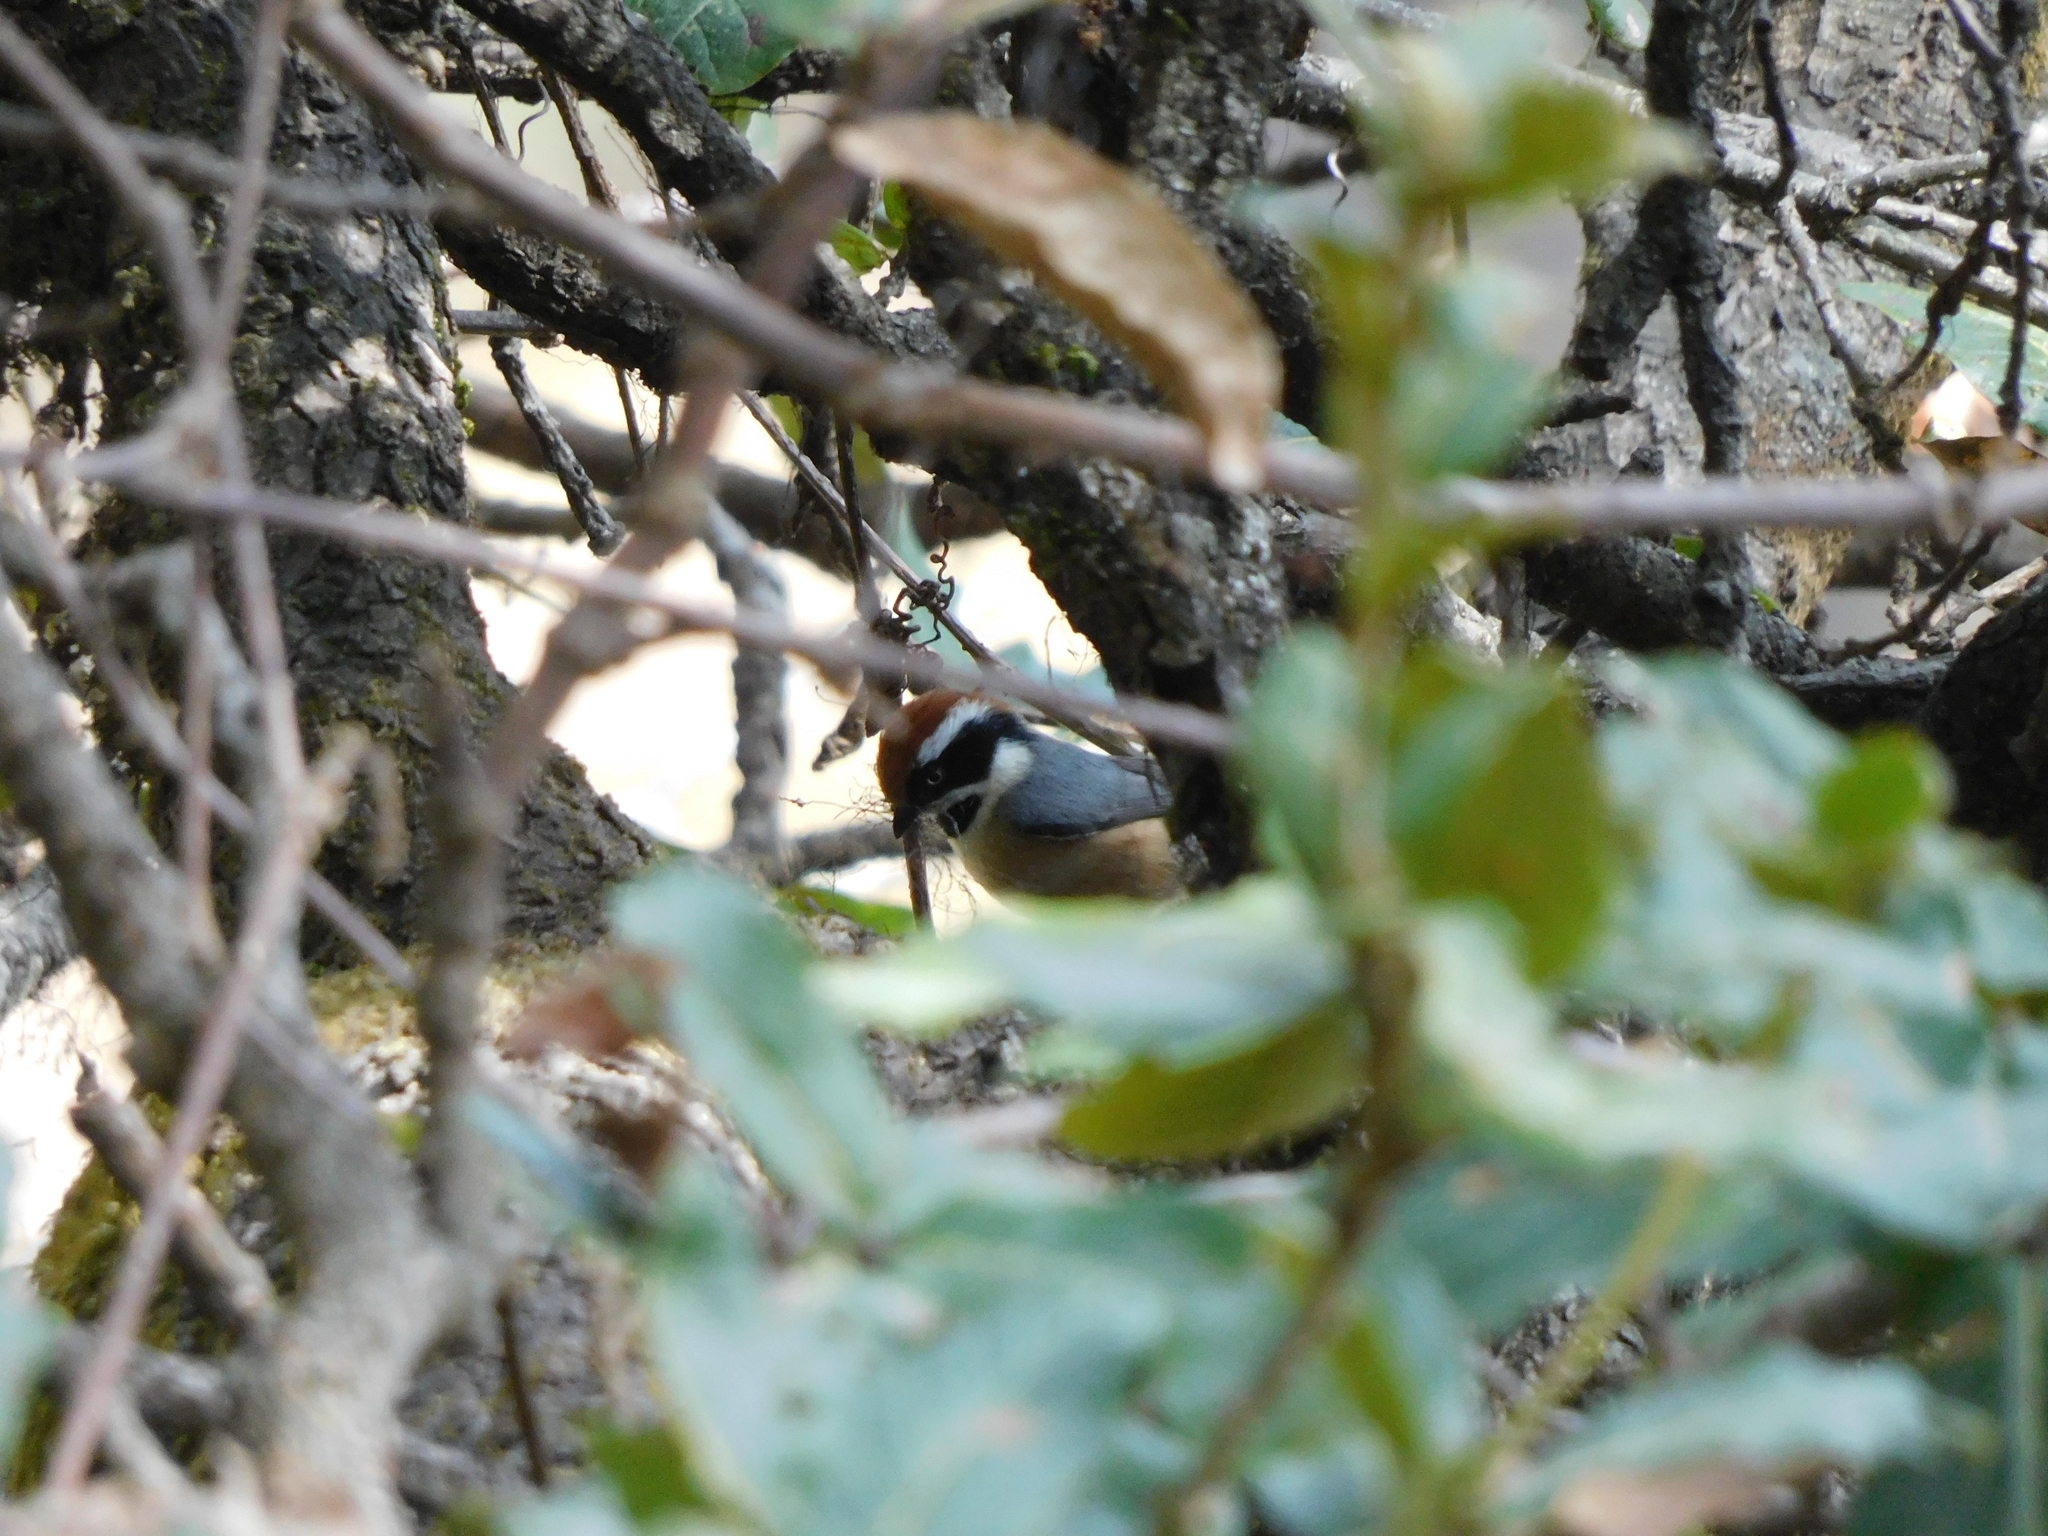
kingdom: Animalia
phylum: Chordata
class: Aves
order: Passeriformes
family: Aegithalidae
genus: Aegithalos
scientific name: Aegithalos concinnus
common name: Black-throated bushtit
